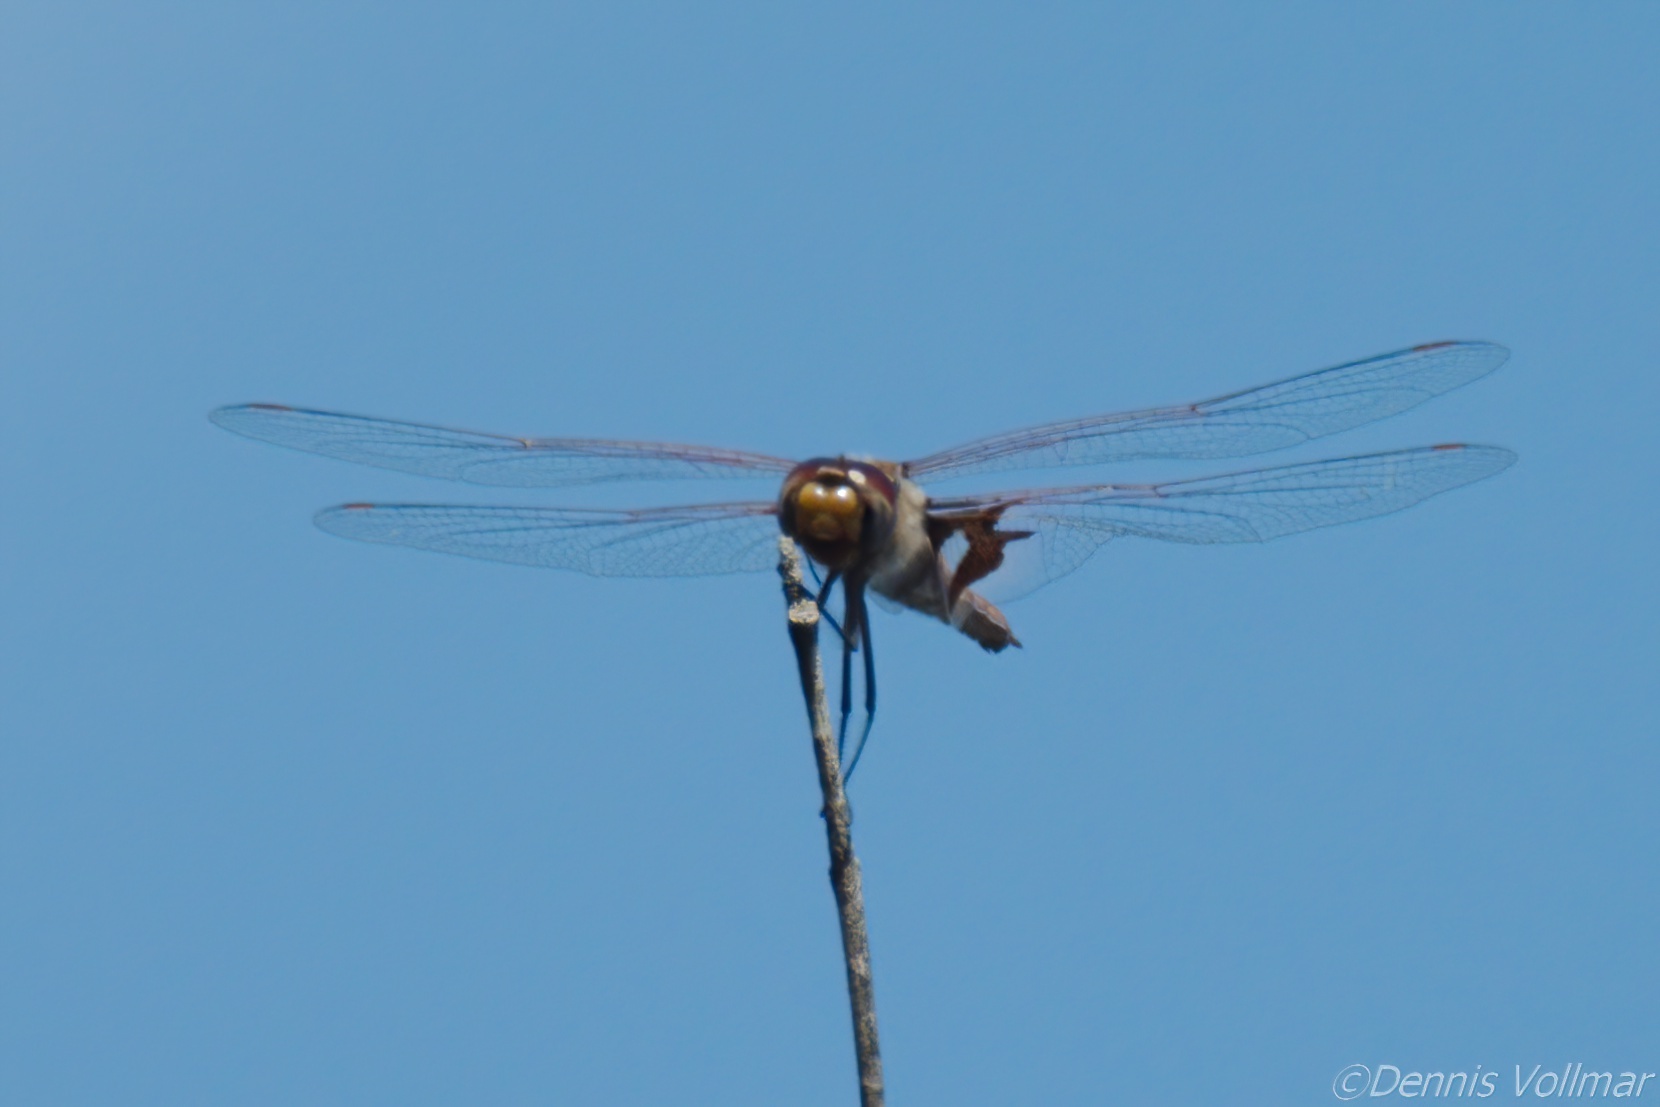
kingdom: Animalia
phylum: Arthropoda
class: Insecta
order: Odonata
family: Libellulidae
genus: Tramea
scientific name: Tramea onusta
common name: Red saddlebags
